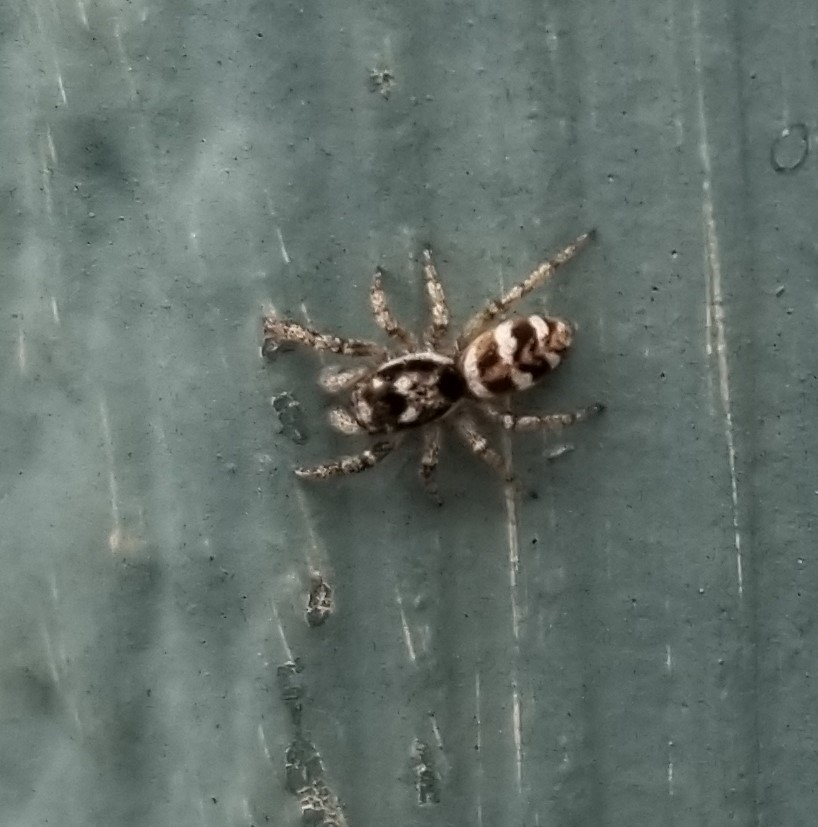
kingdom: Animalia
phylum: Arthropoda
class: Arachnida
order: Araneae
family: Salticidae
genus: Salticus
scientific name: Salticus scenicus
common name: Zebra jumper
